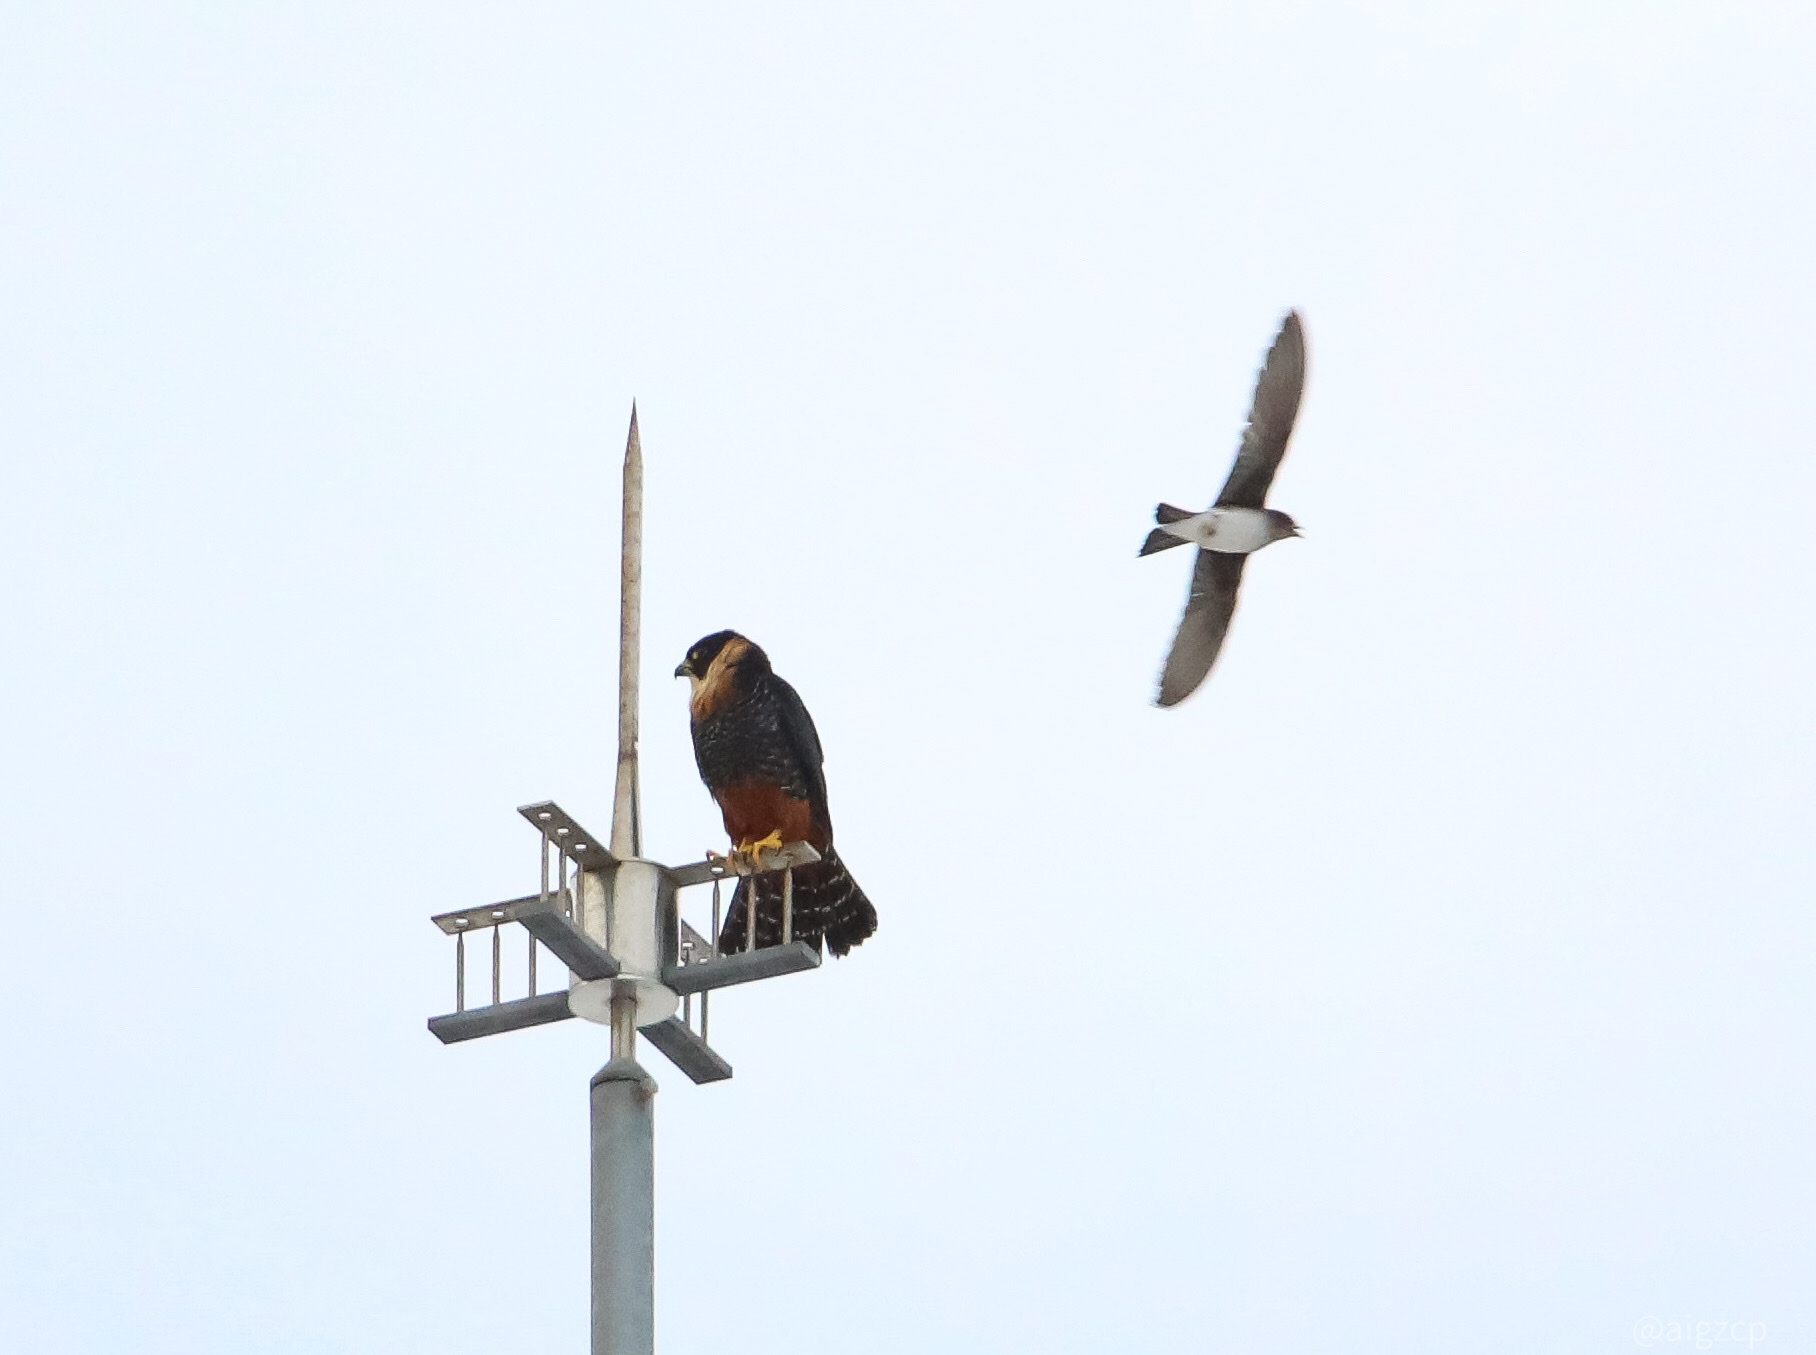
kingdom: Animalia
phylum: Chordata
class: Aves
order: Falconiformes
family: Falconidae
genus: Falco
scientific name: Falco rufigularis
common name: Bat falcon
